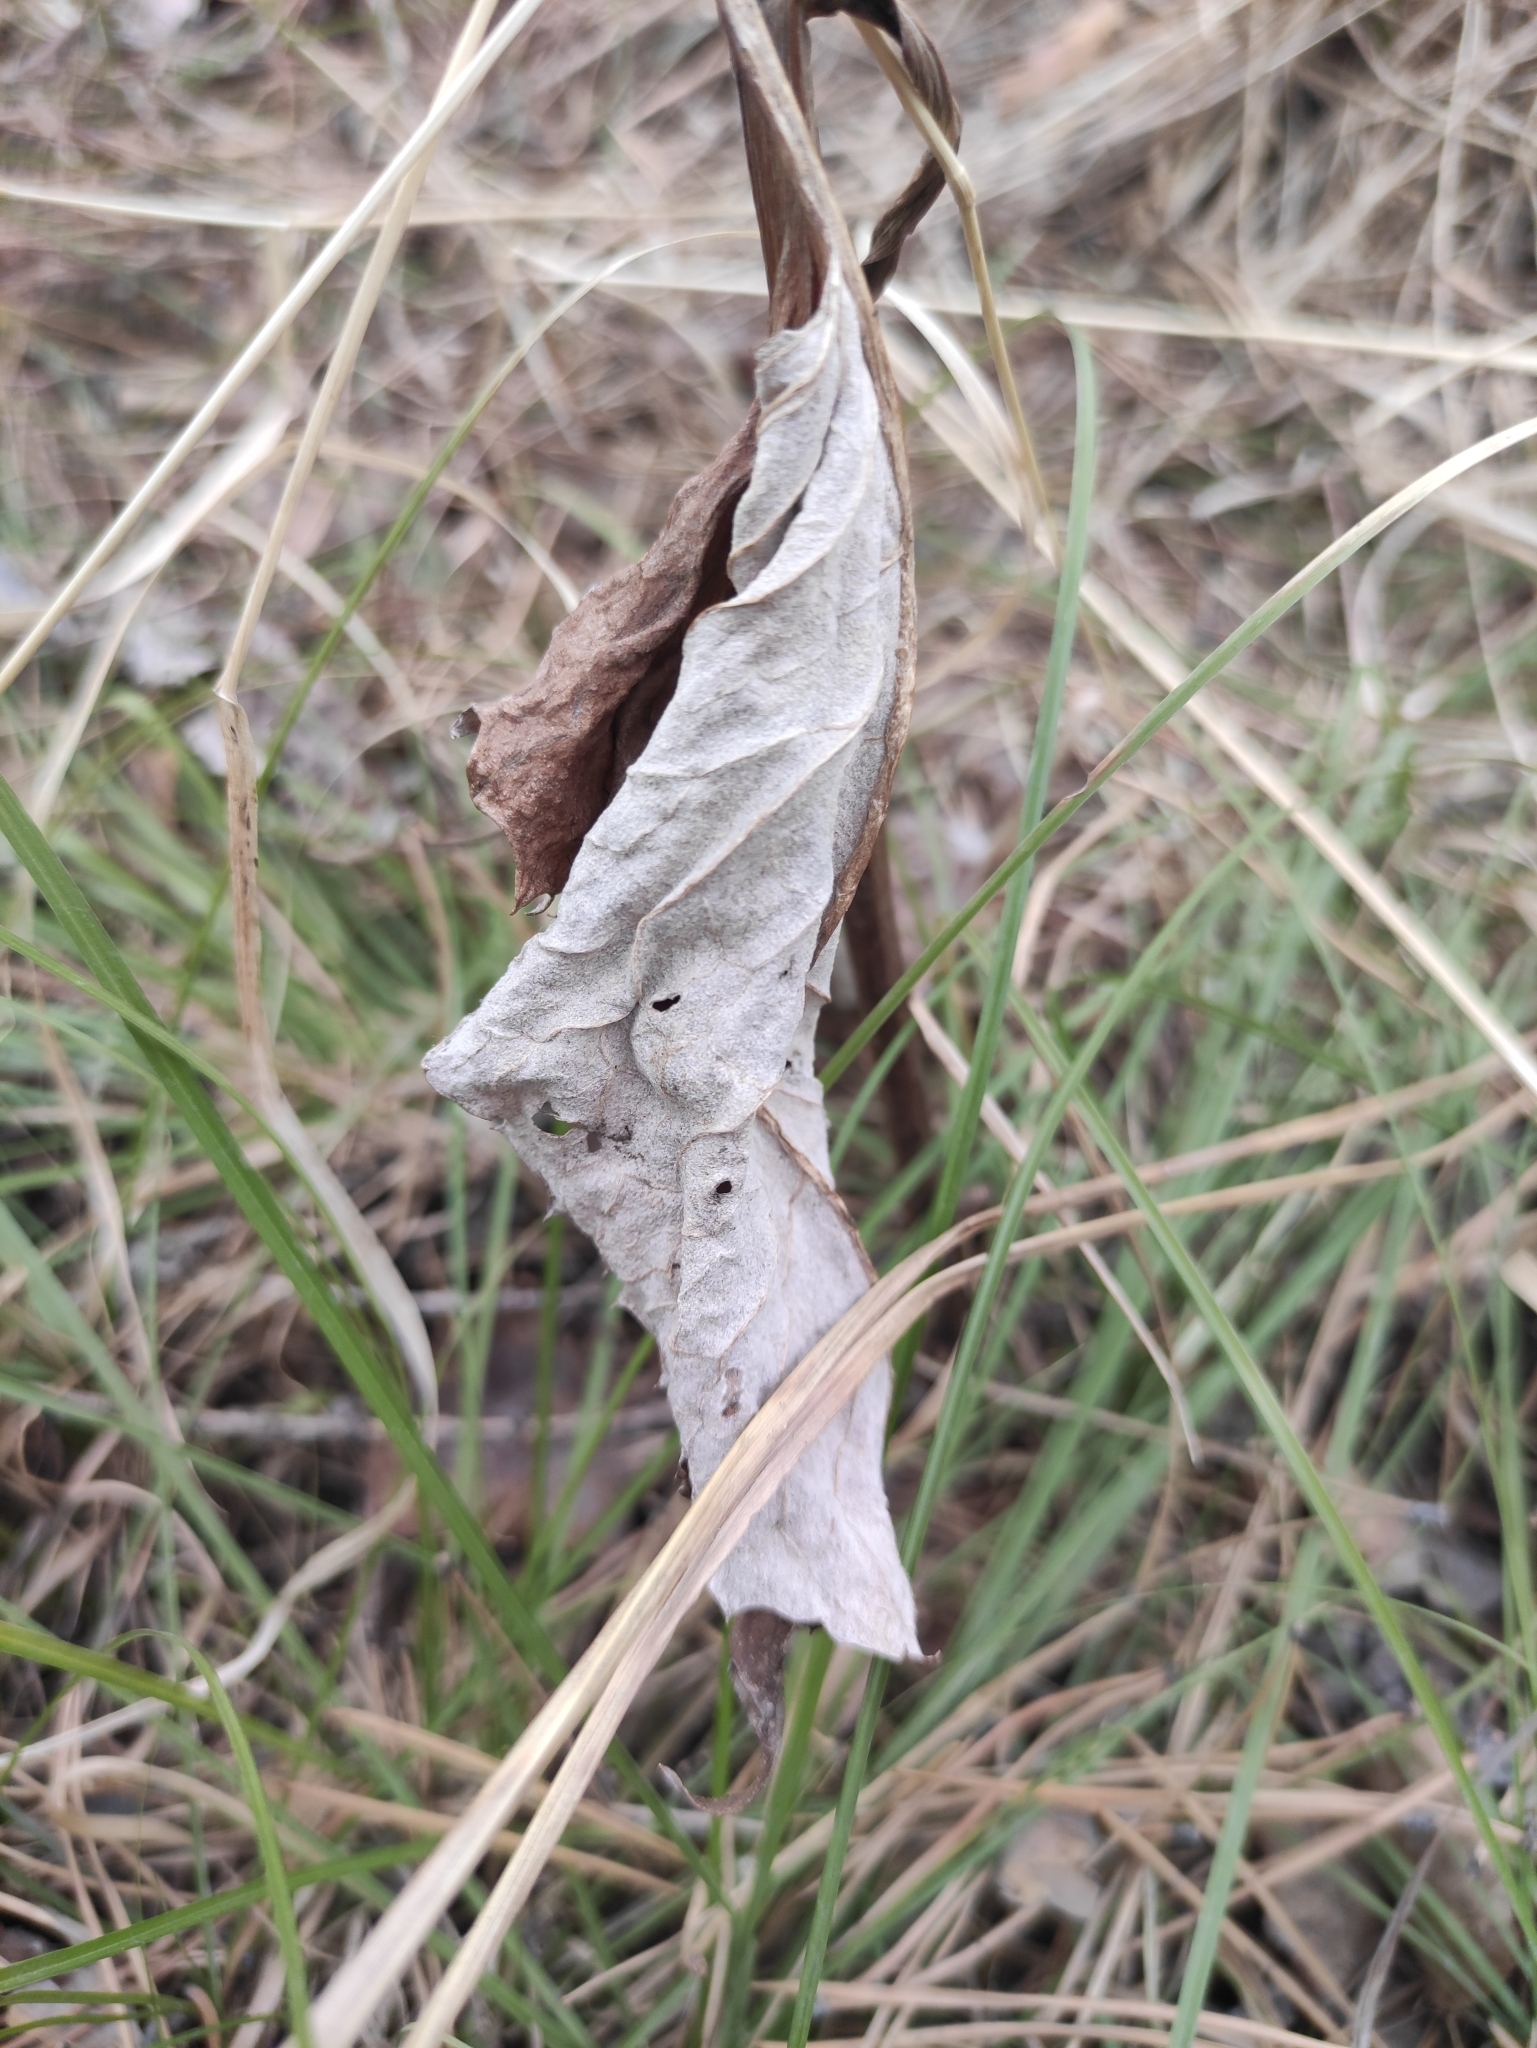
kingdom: Plantae
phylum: Tracheophyta
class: Magnoliopsida
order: Asterales
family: Asteraceae
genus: Saussurea
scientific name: Saussurea controversa
